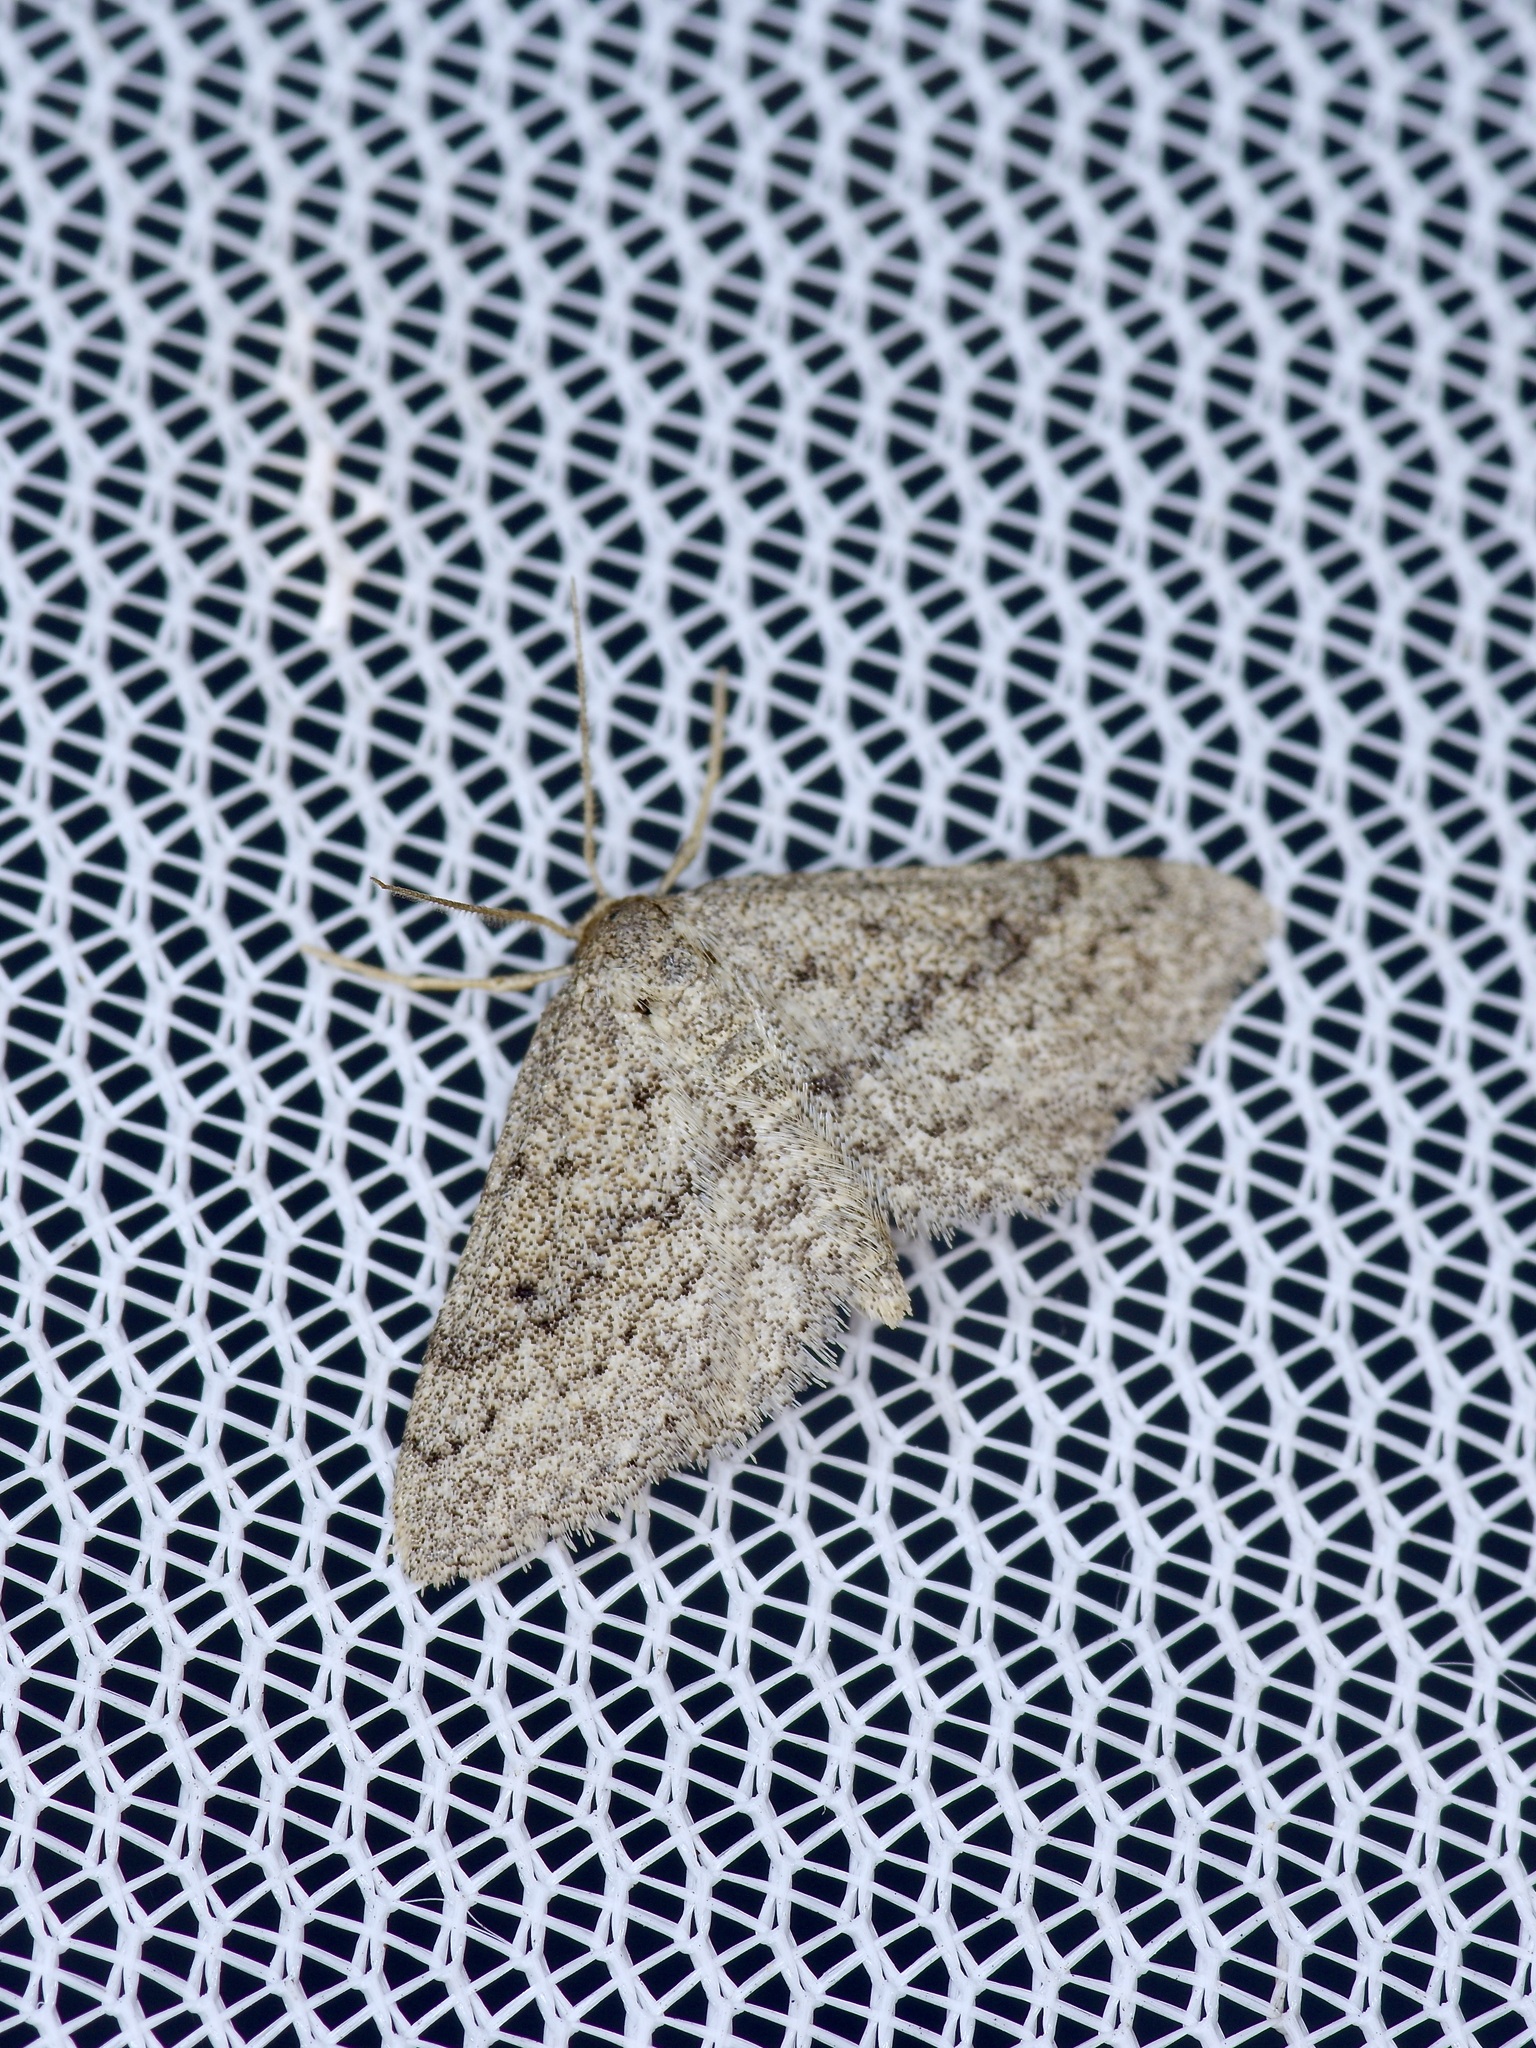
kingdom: Animalia
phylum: Arthropoda
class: Insecta
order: Lepidoptera
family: Geometridae
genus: Lobocleta
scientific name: Lobocleta ossularia
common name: Drab brown wave
